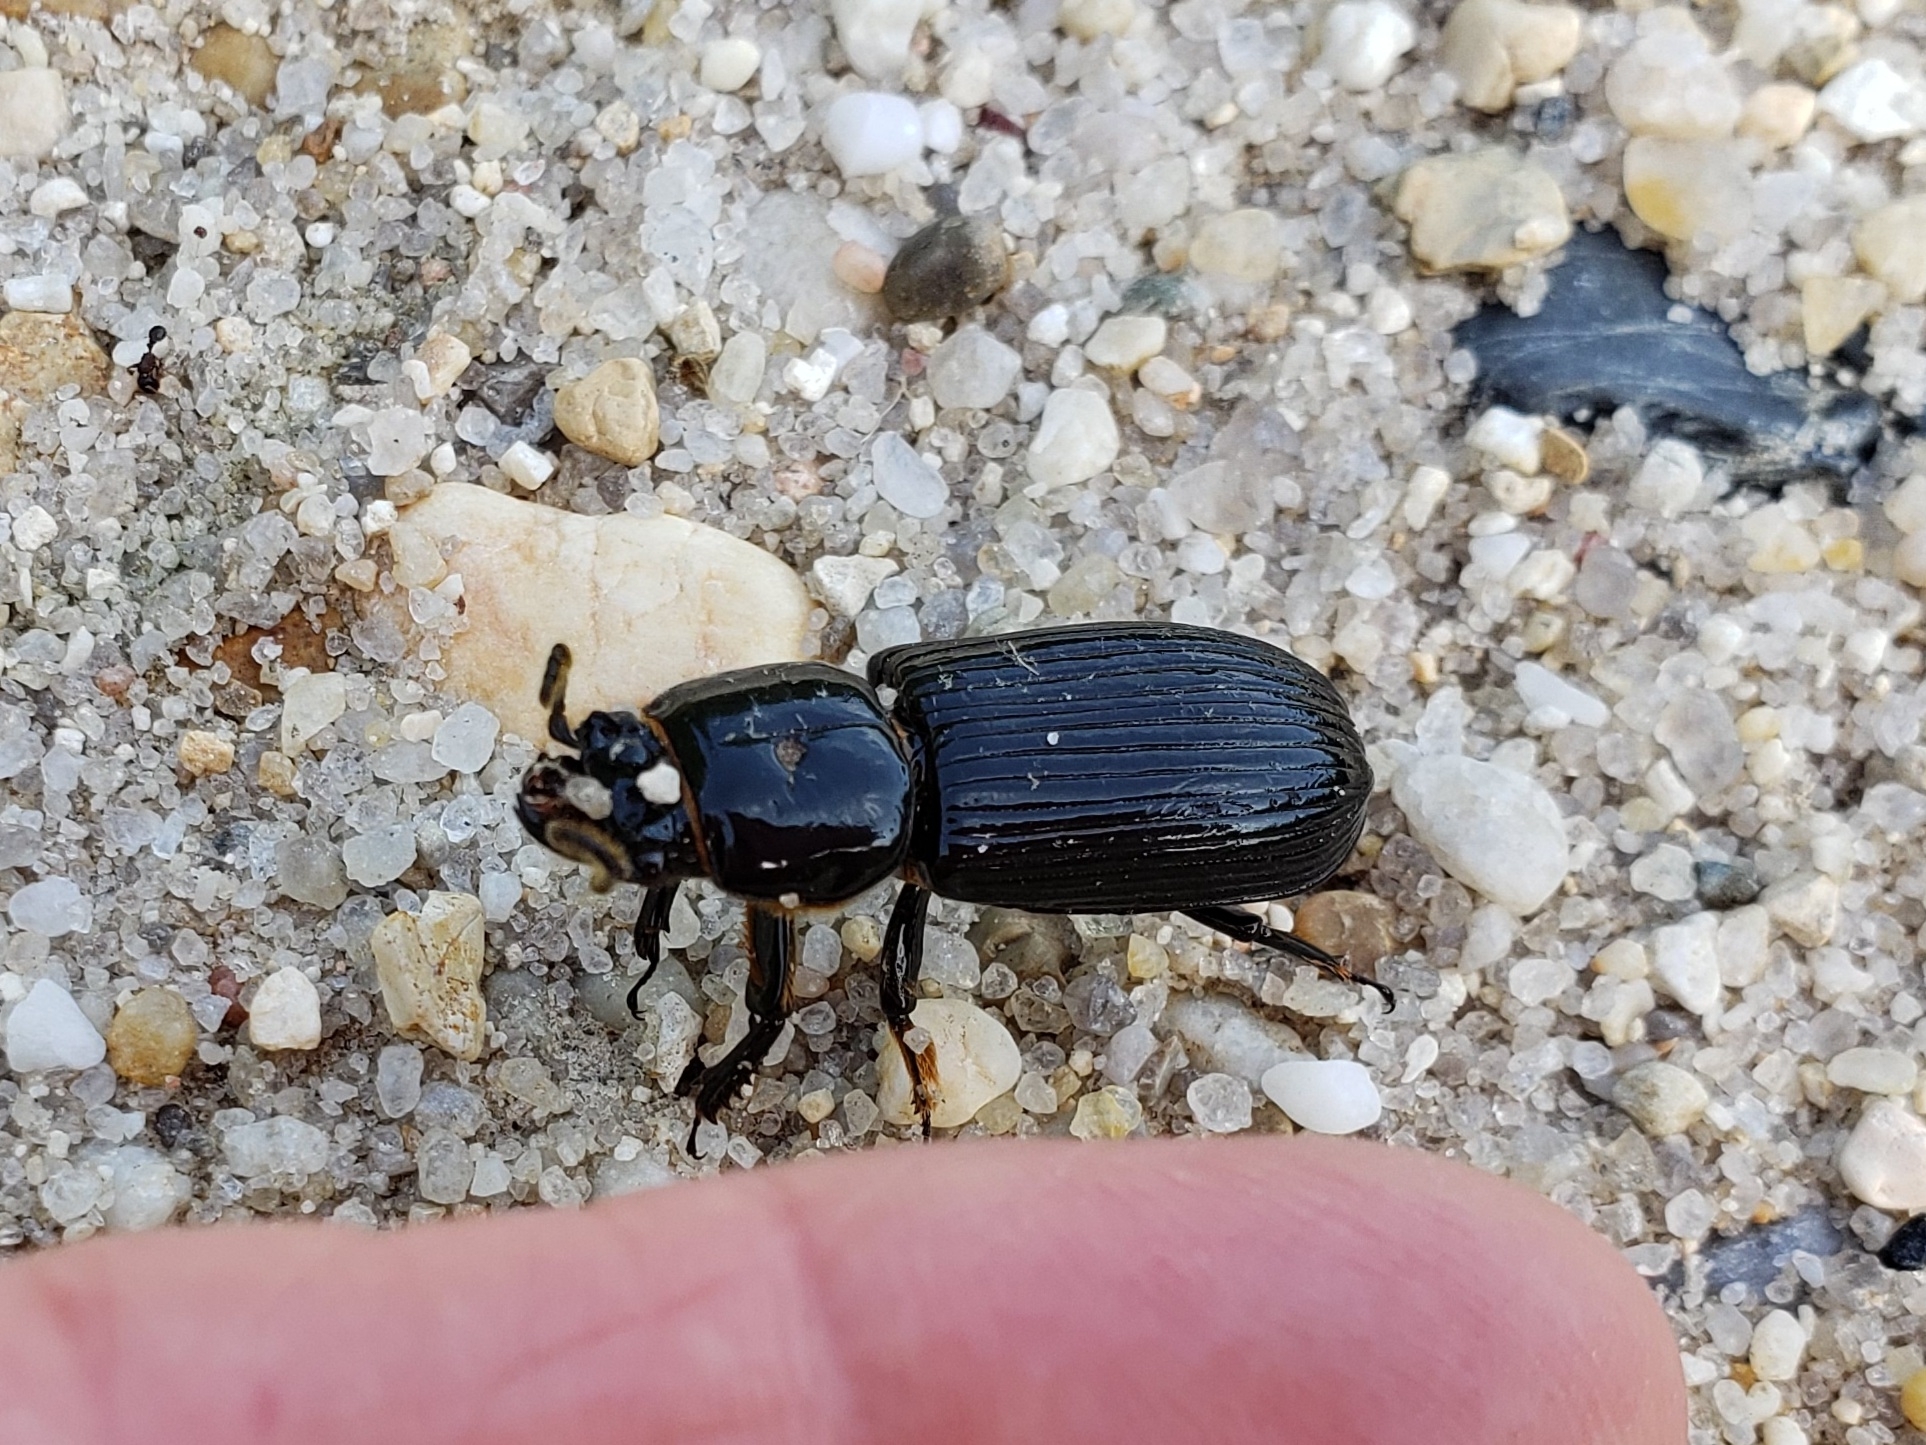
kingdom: Animalia
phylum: Arthropoda
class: Insecta
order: Coleoptera
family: Passalidae
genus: Odontotaenius
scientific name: Odontotaenius disjunctus
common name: Patent leather beetle
